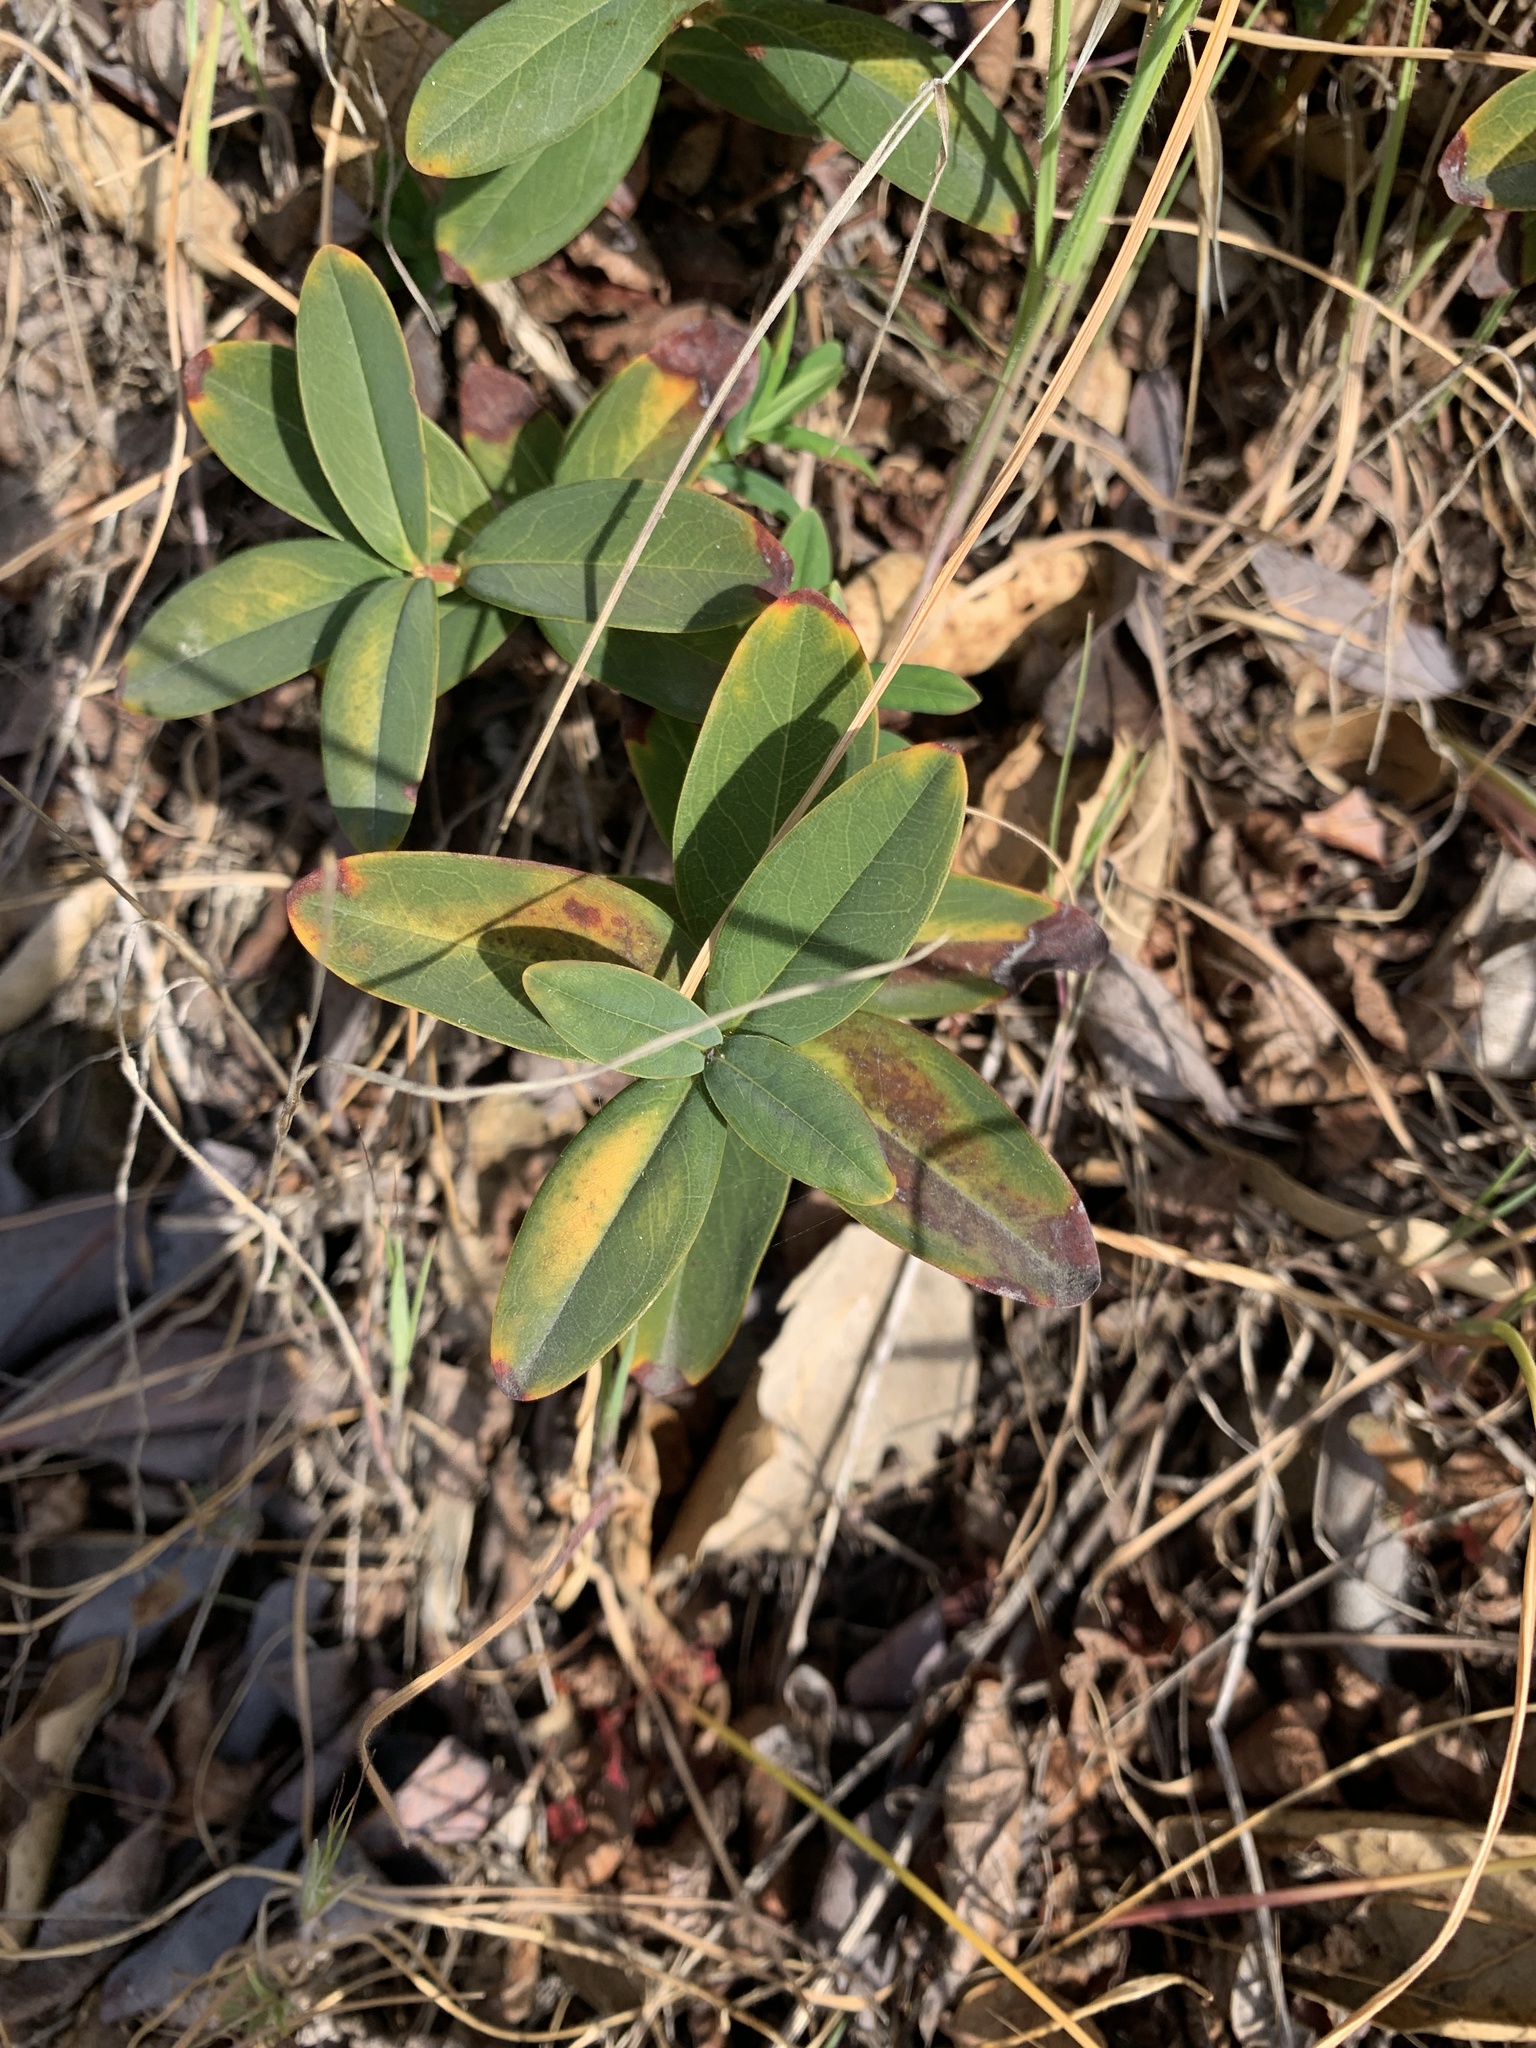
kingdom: Plantae
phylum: Tracheophyta
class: Magnoliopsida
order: Malpighiales
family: Hypericaceae
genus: Hypericum
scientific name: Hypericum calycinum
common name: Rose-of-sharon
